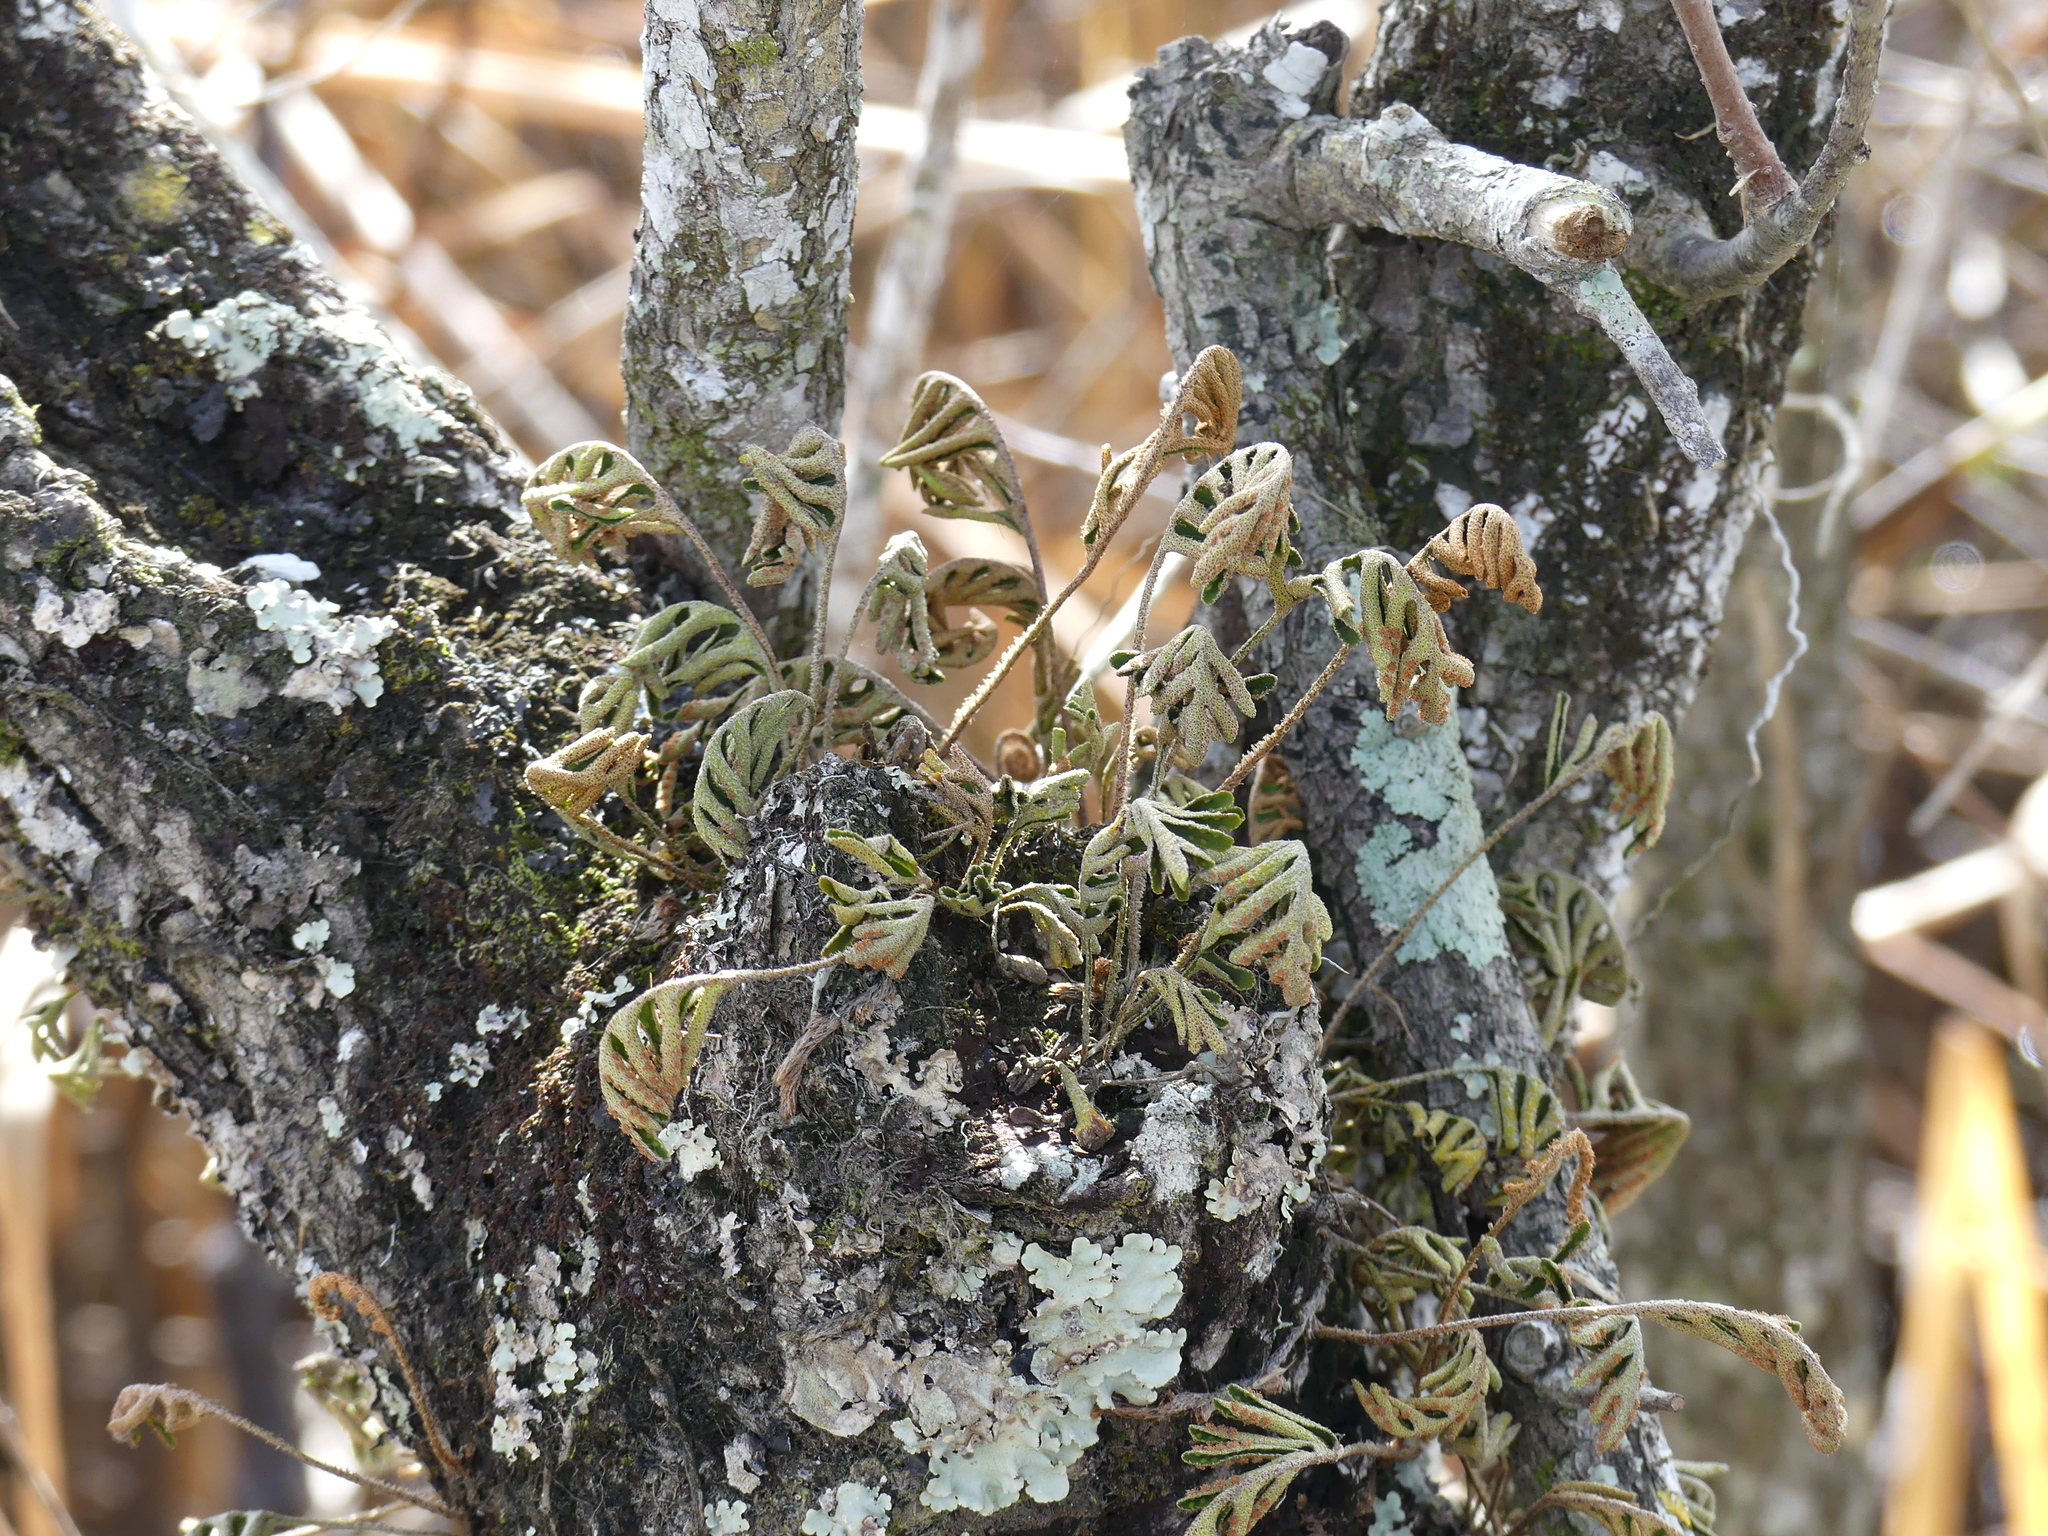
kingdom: Plantae
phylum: Tracheophyta
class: Polypodiopsida
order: Polypodiales
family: Polypodiaceae
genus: Pleopeltis
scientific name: Pleopeltis michauxiana
